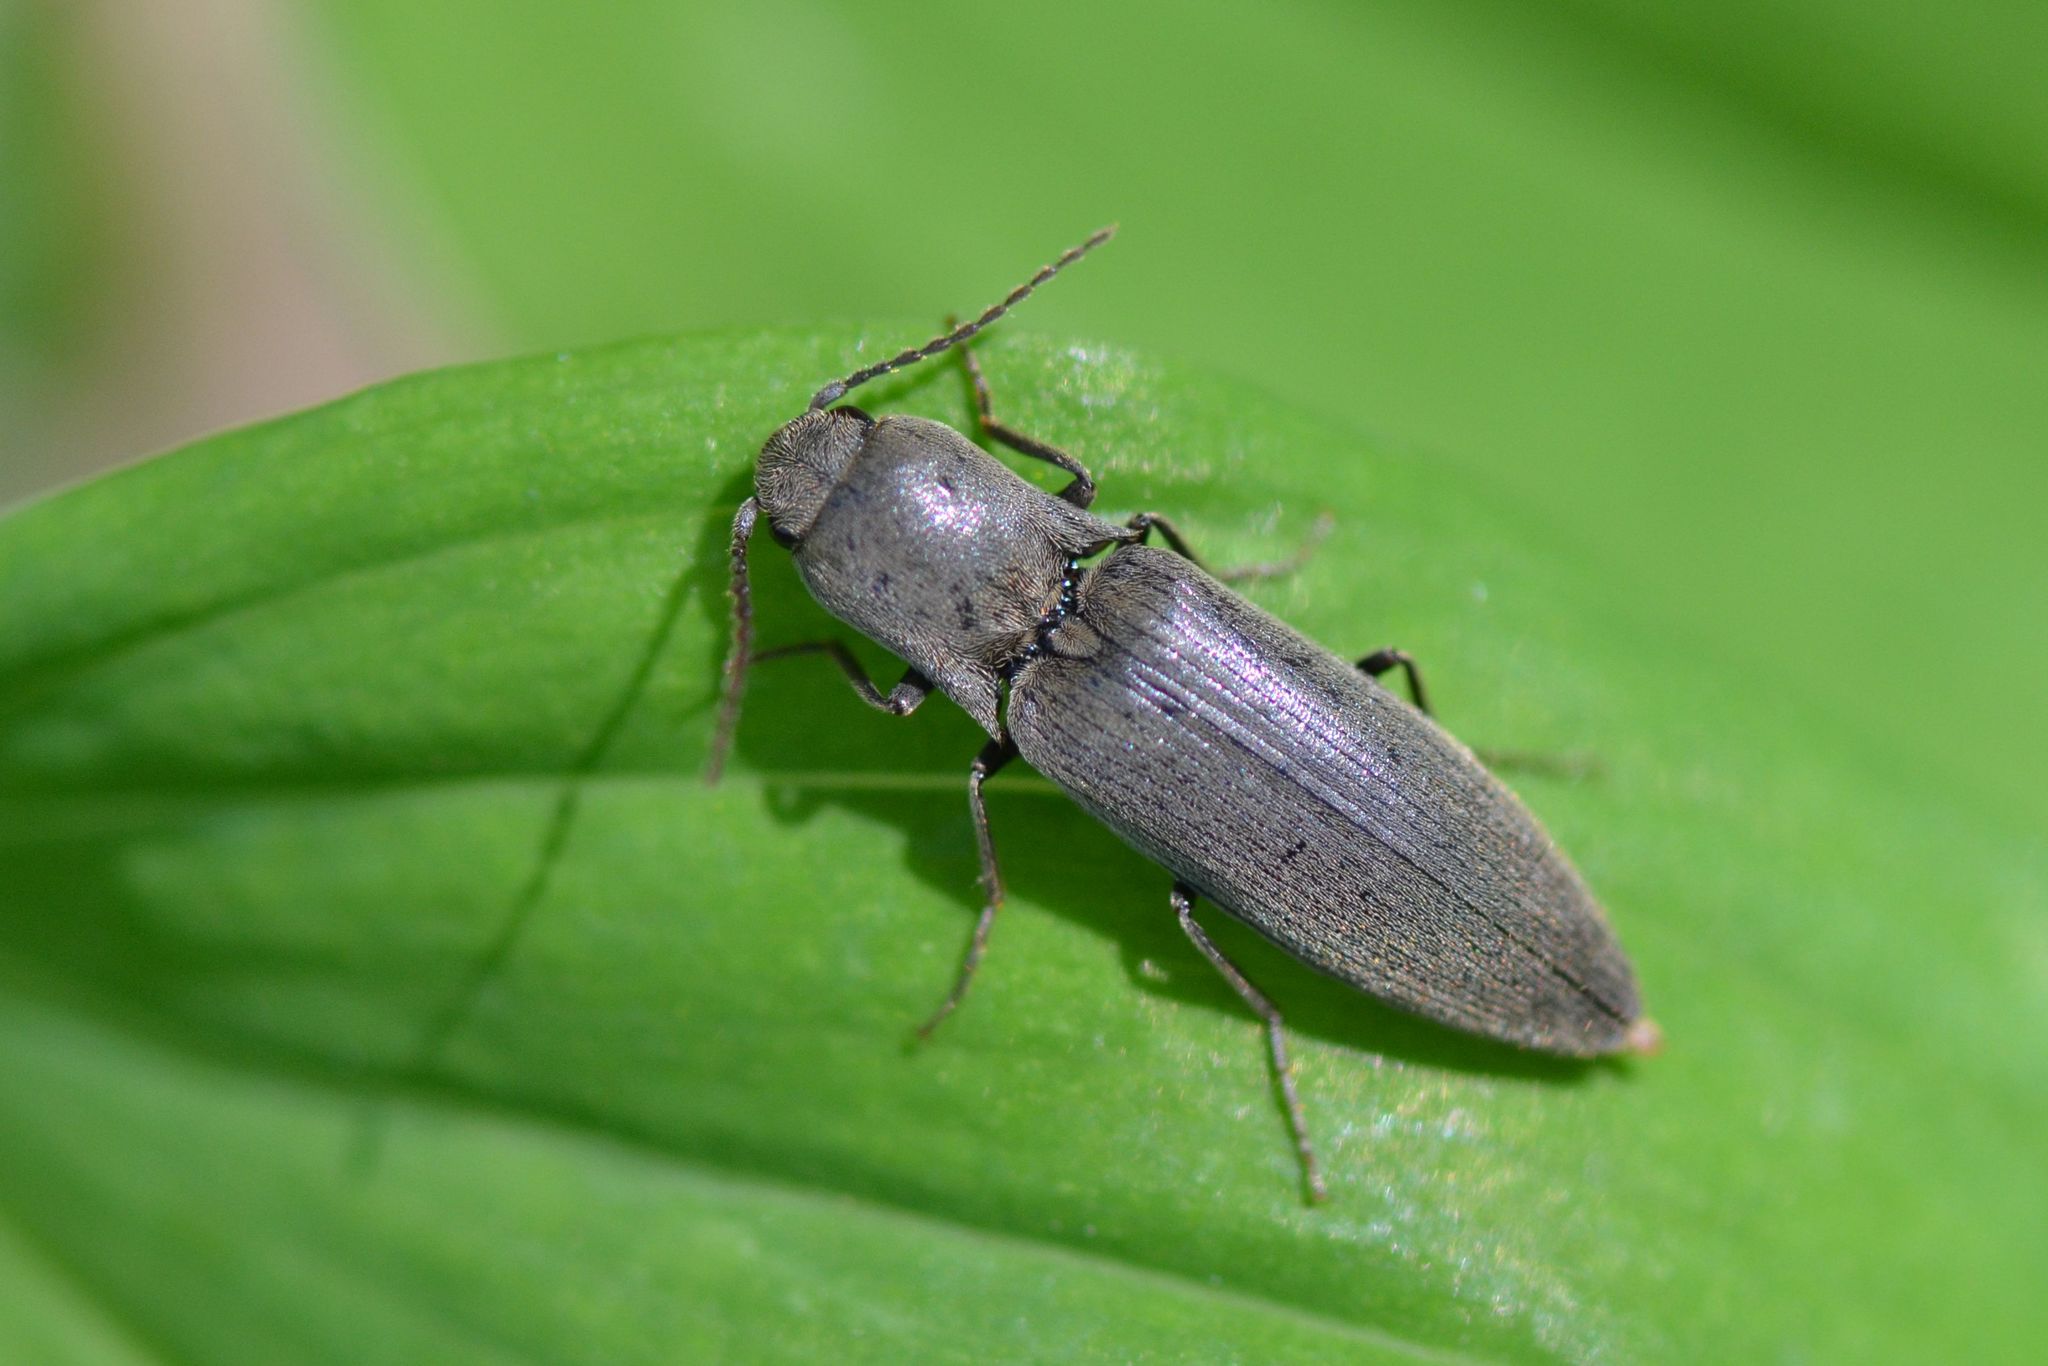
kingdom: Animalia
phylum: Arthropoda
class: Insecta
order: Coleoptera
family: Elateridae
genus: Agriotes
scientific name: Agriotes pilosellus
